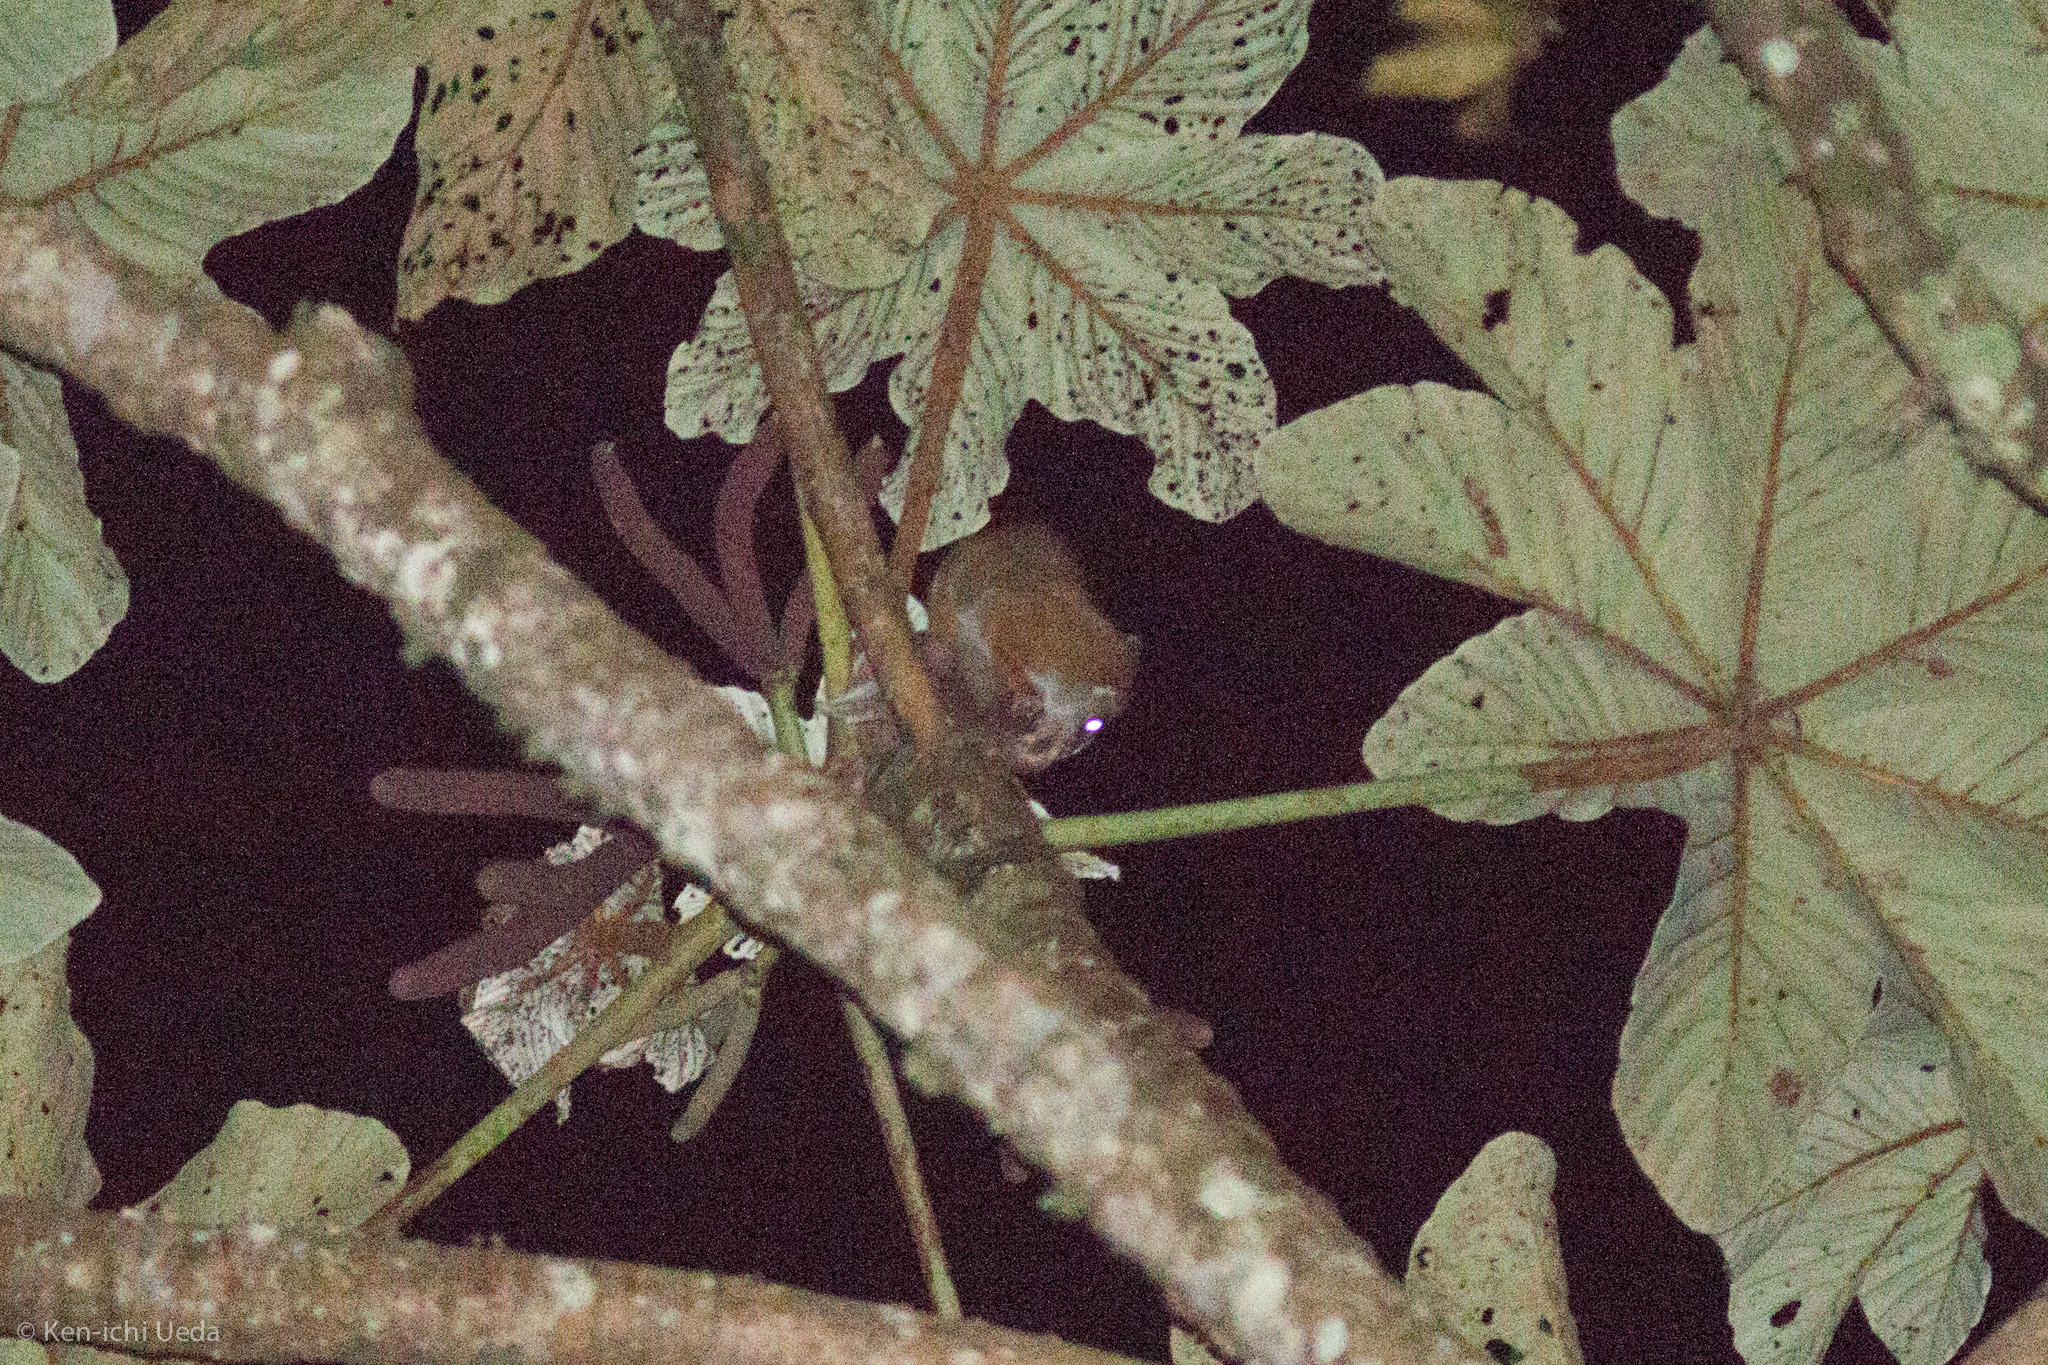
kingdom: Animalia
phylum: Chordata
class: Mammalia
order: Didelphimorphia
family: Didelphidae
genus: Caluromys
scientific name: Caluromys lanatus
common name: Brown-eared woolly opossum
